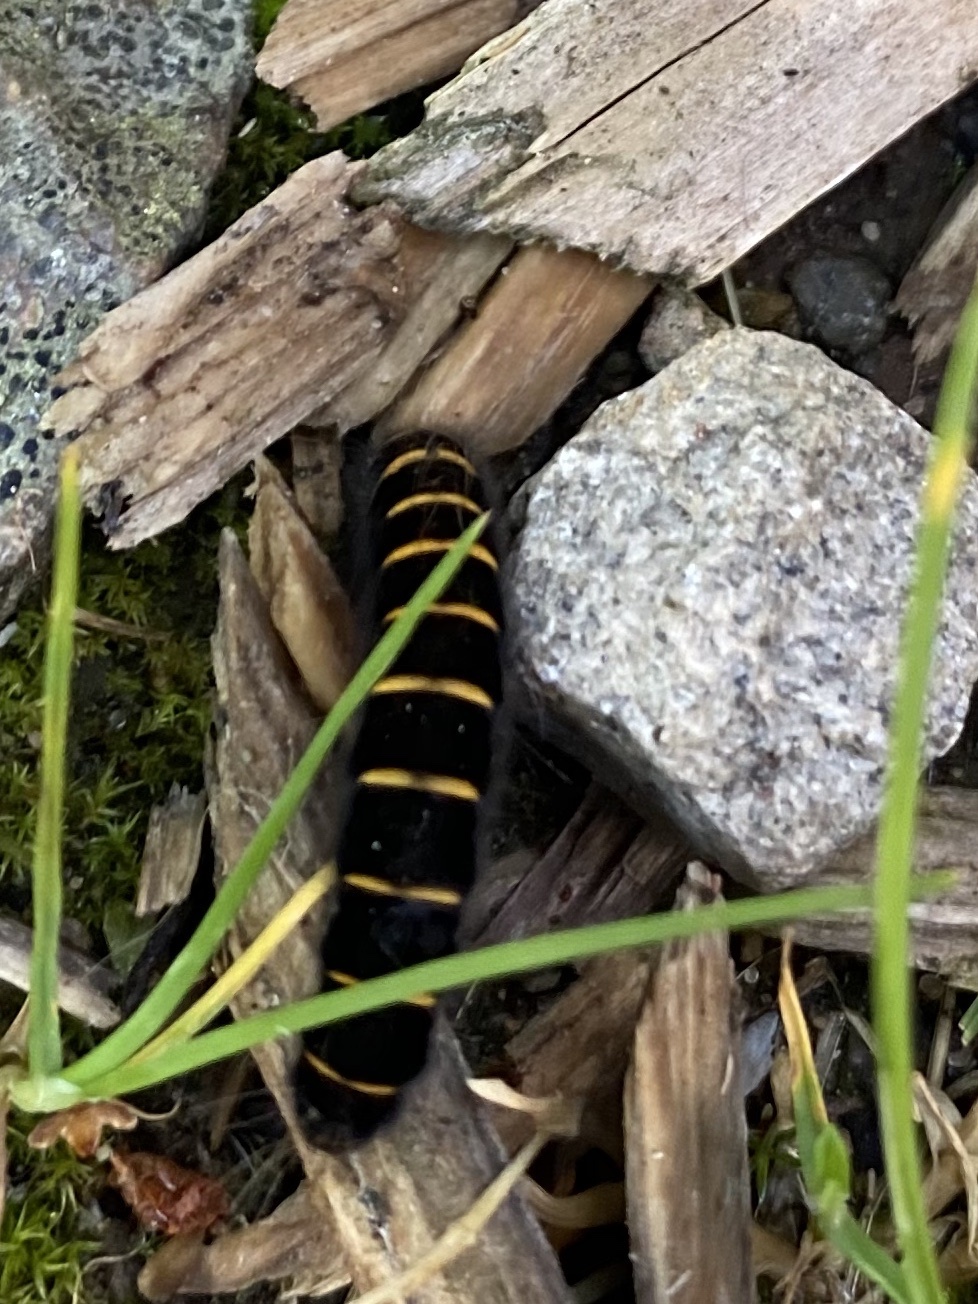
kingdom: Animalia
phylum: Arthropoda
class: Insecta
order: Lepidoptera
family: Lasiocampidae
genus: Macrothylacia
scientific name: Macrothylacia rubi
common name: Fox moth
